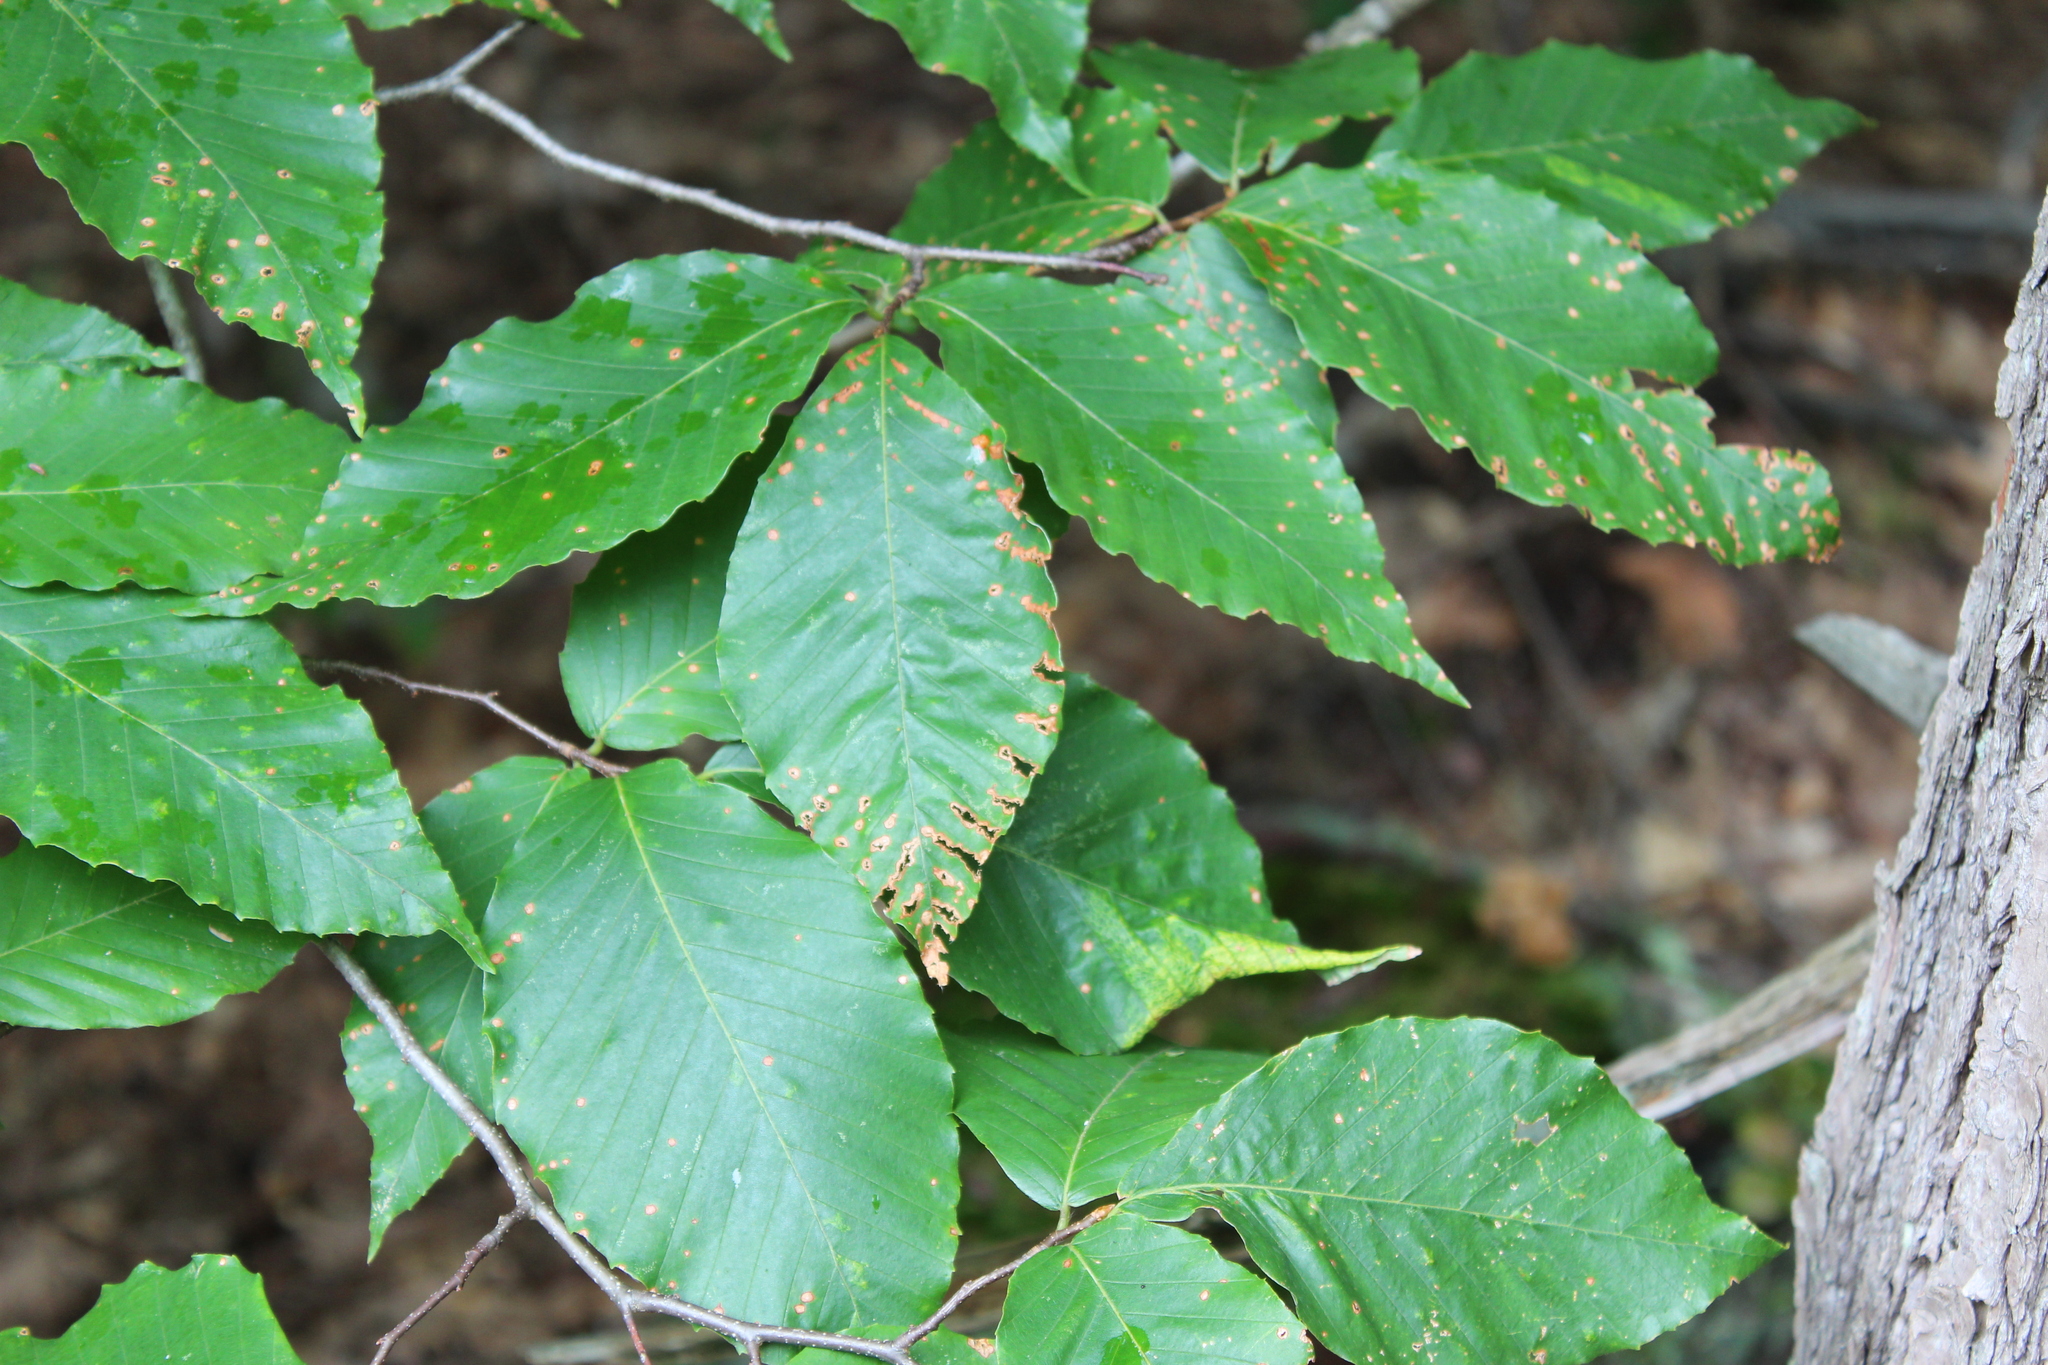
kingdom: Plantae
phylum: Tracheophyta
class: Magnoliopsida
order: Fagales
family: Fagaceae
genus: Fagus
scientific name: Fagus grandifolia
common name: American beech
